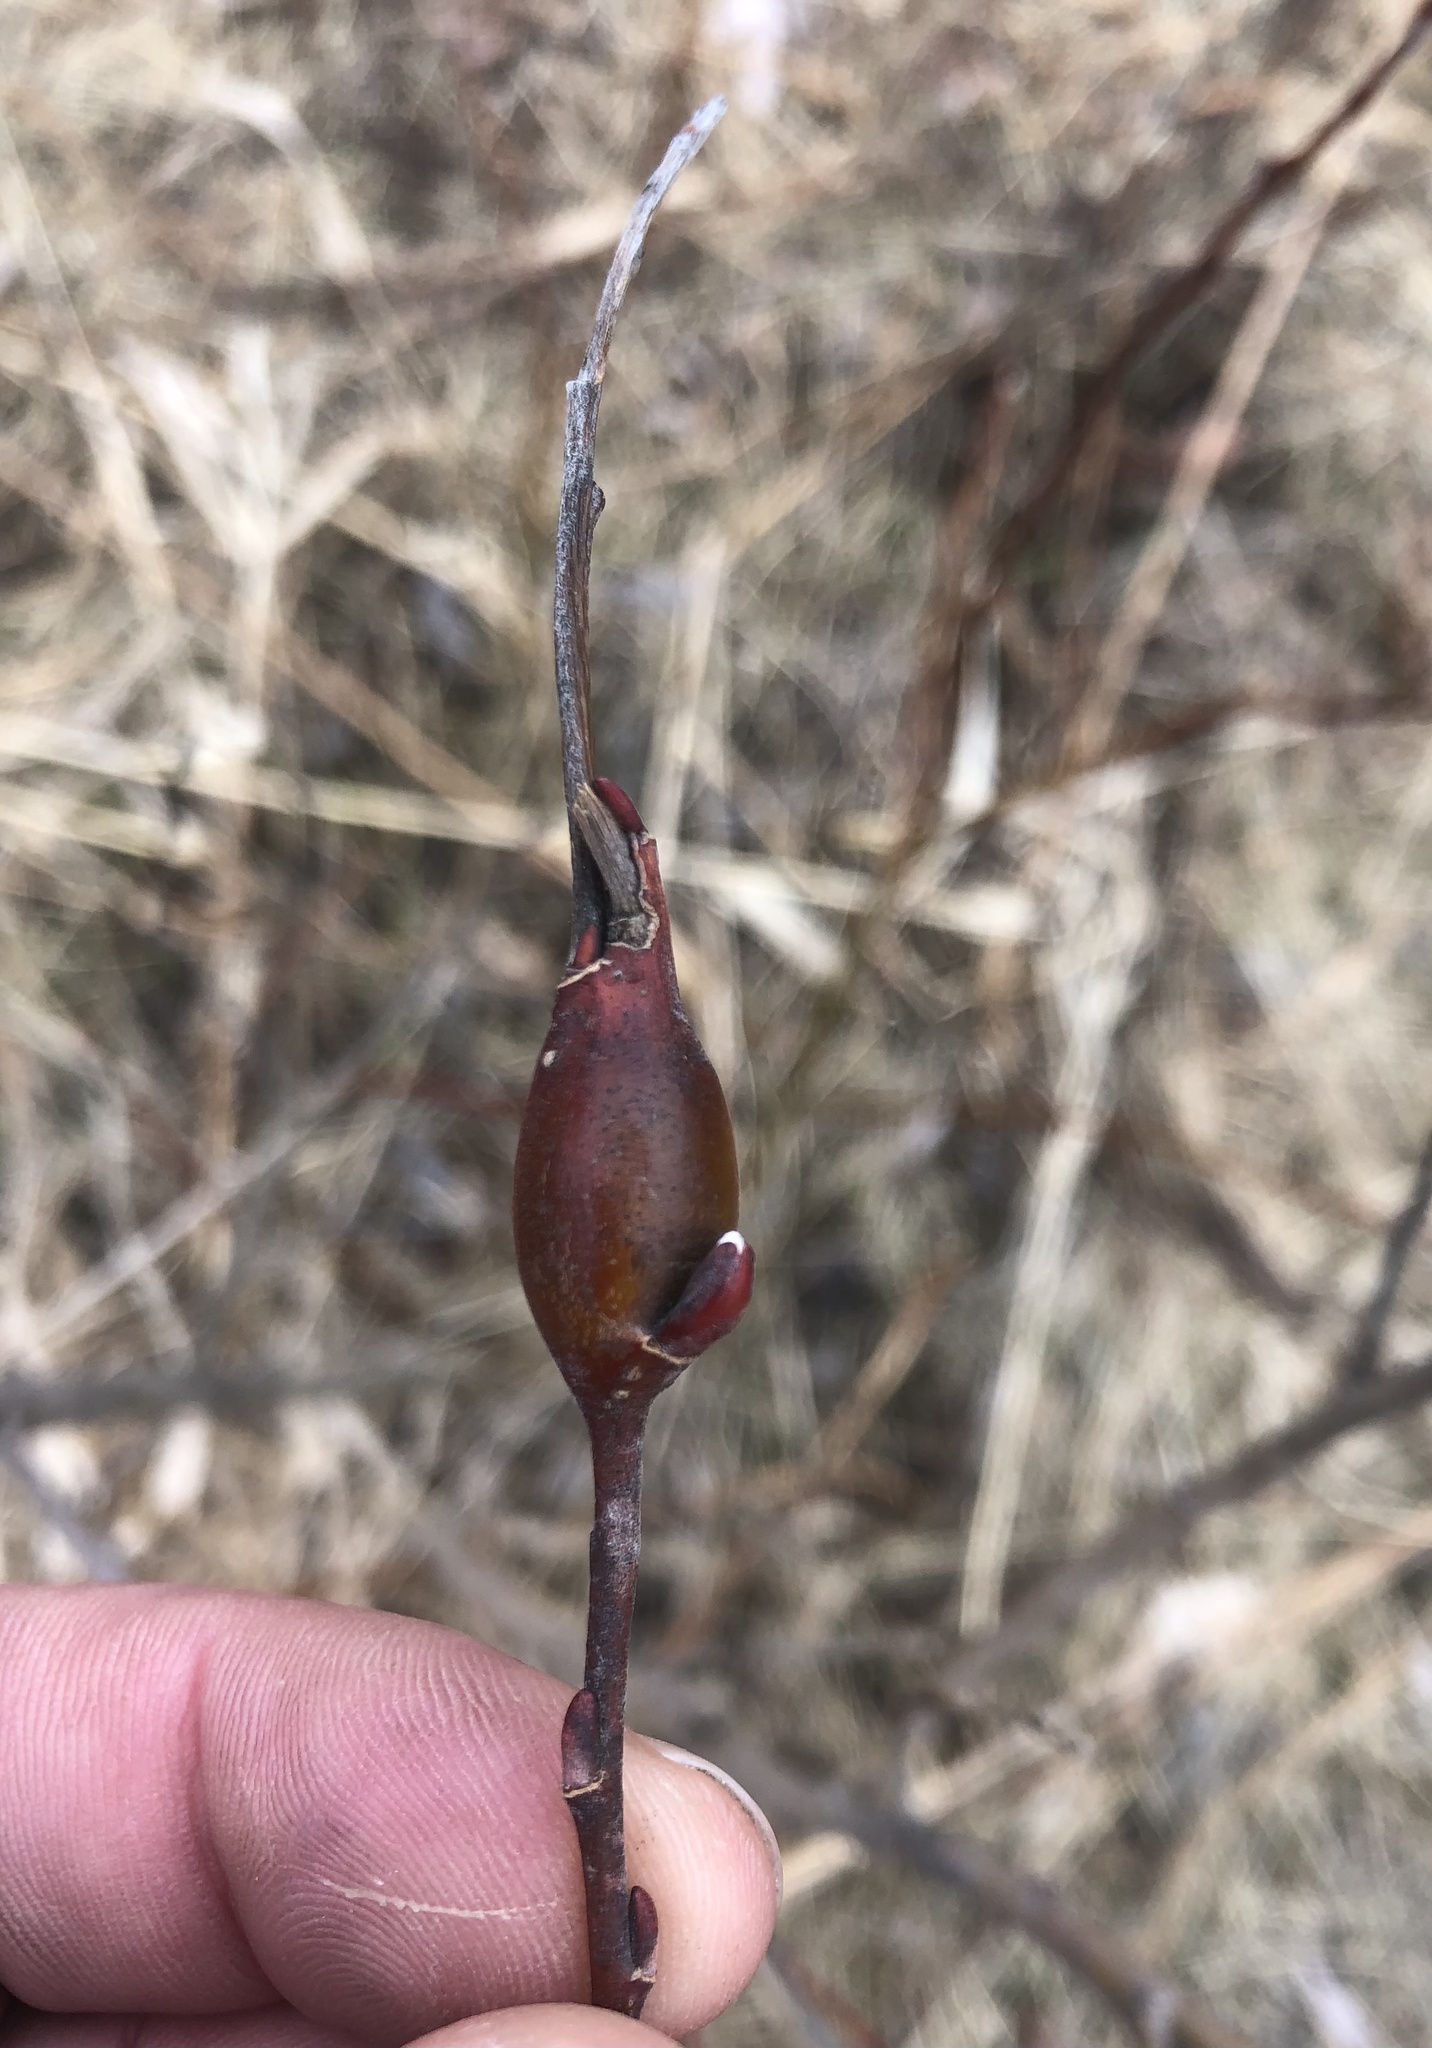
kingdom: Animalia
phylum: Arthropoda
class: Insecta
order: Diptera
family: Cecidomyiidae
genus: Thecodiplosis
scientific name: Thecodiplosis pinirigidae
